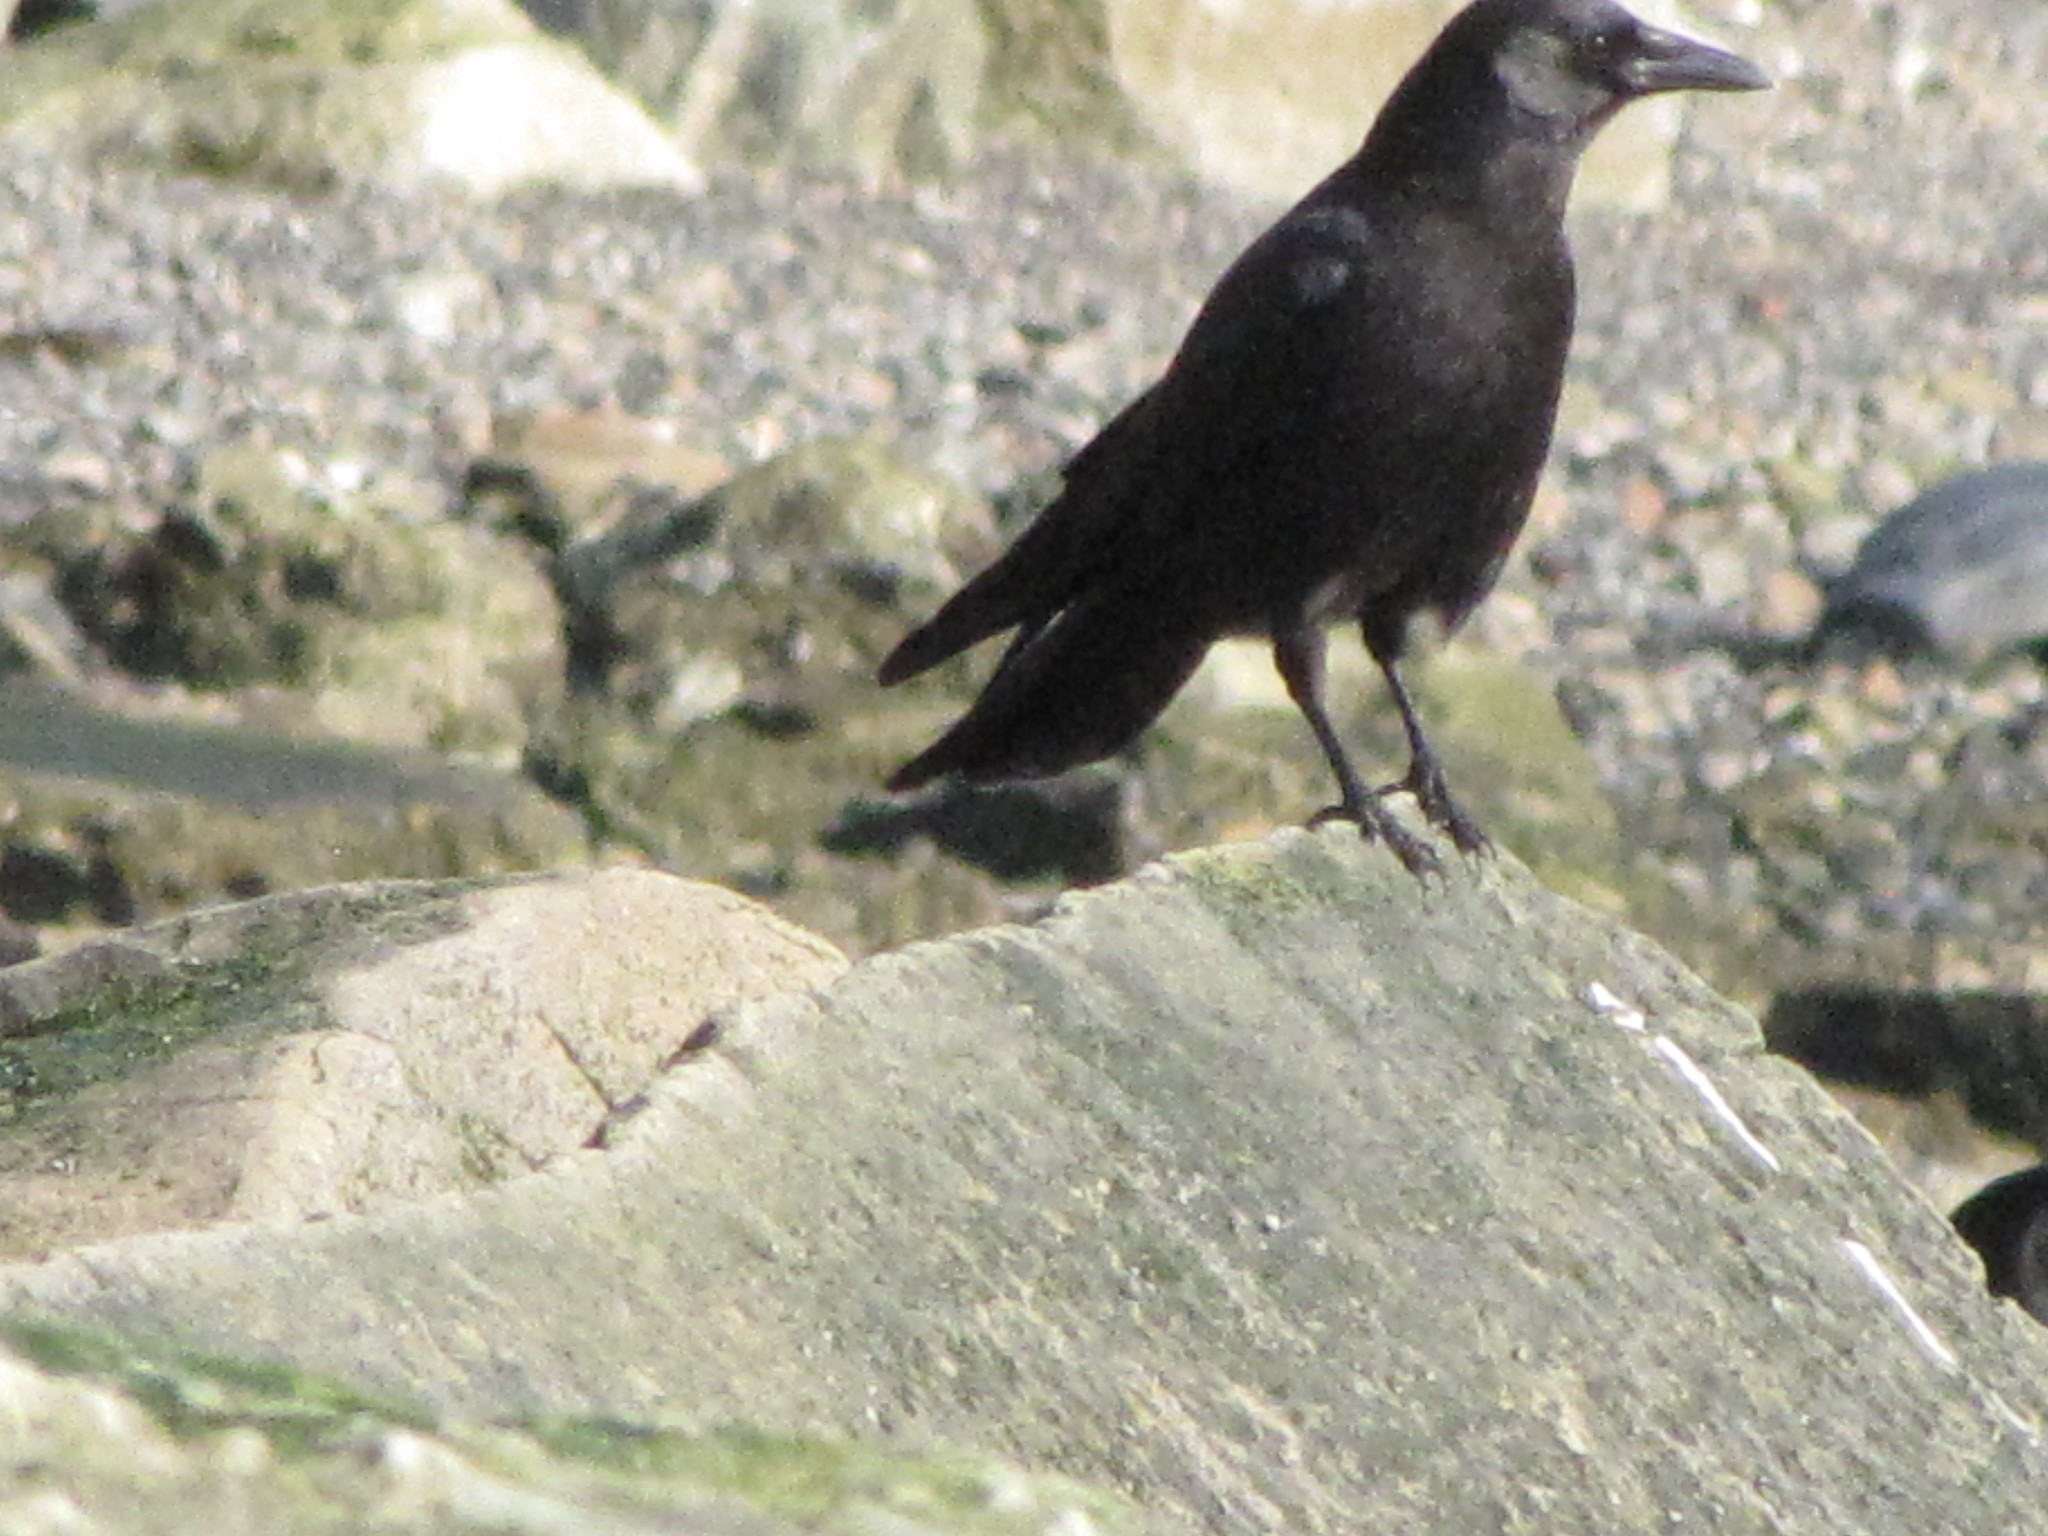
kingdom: Animalia
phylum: Chordata
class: Aves
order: Passeriformes
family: Corvidae
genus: Corvus
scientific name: Corvus brachyrhynchos
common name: American crow
